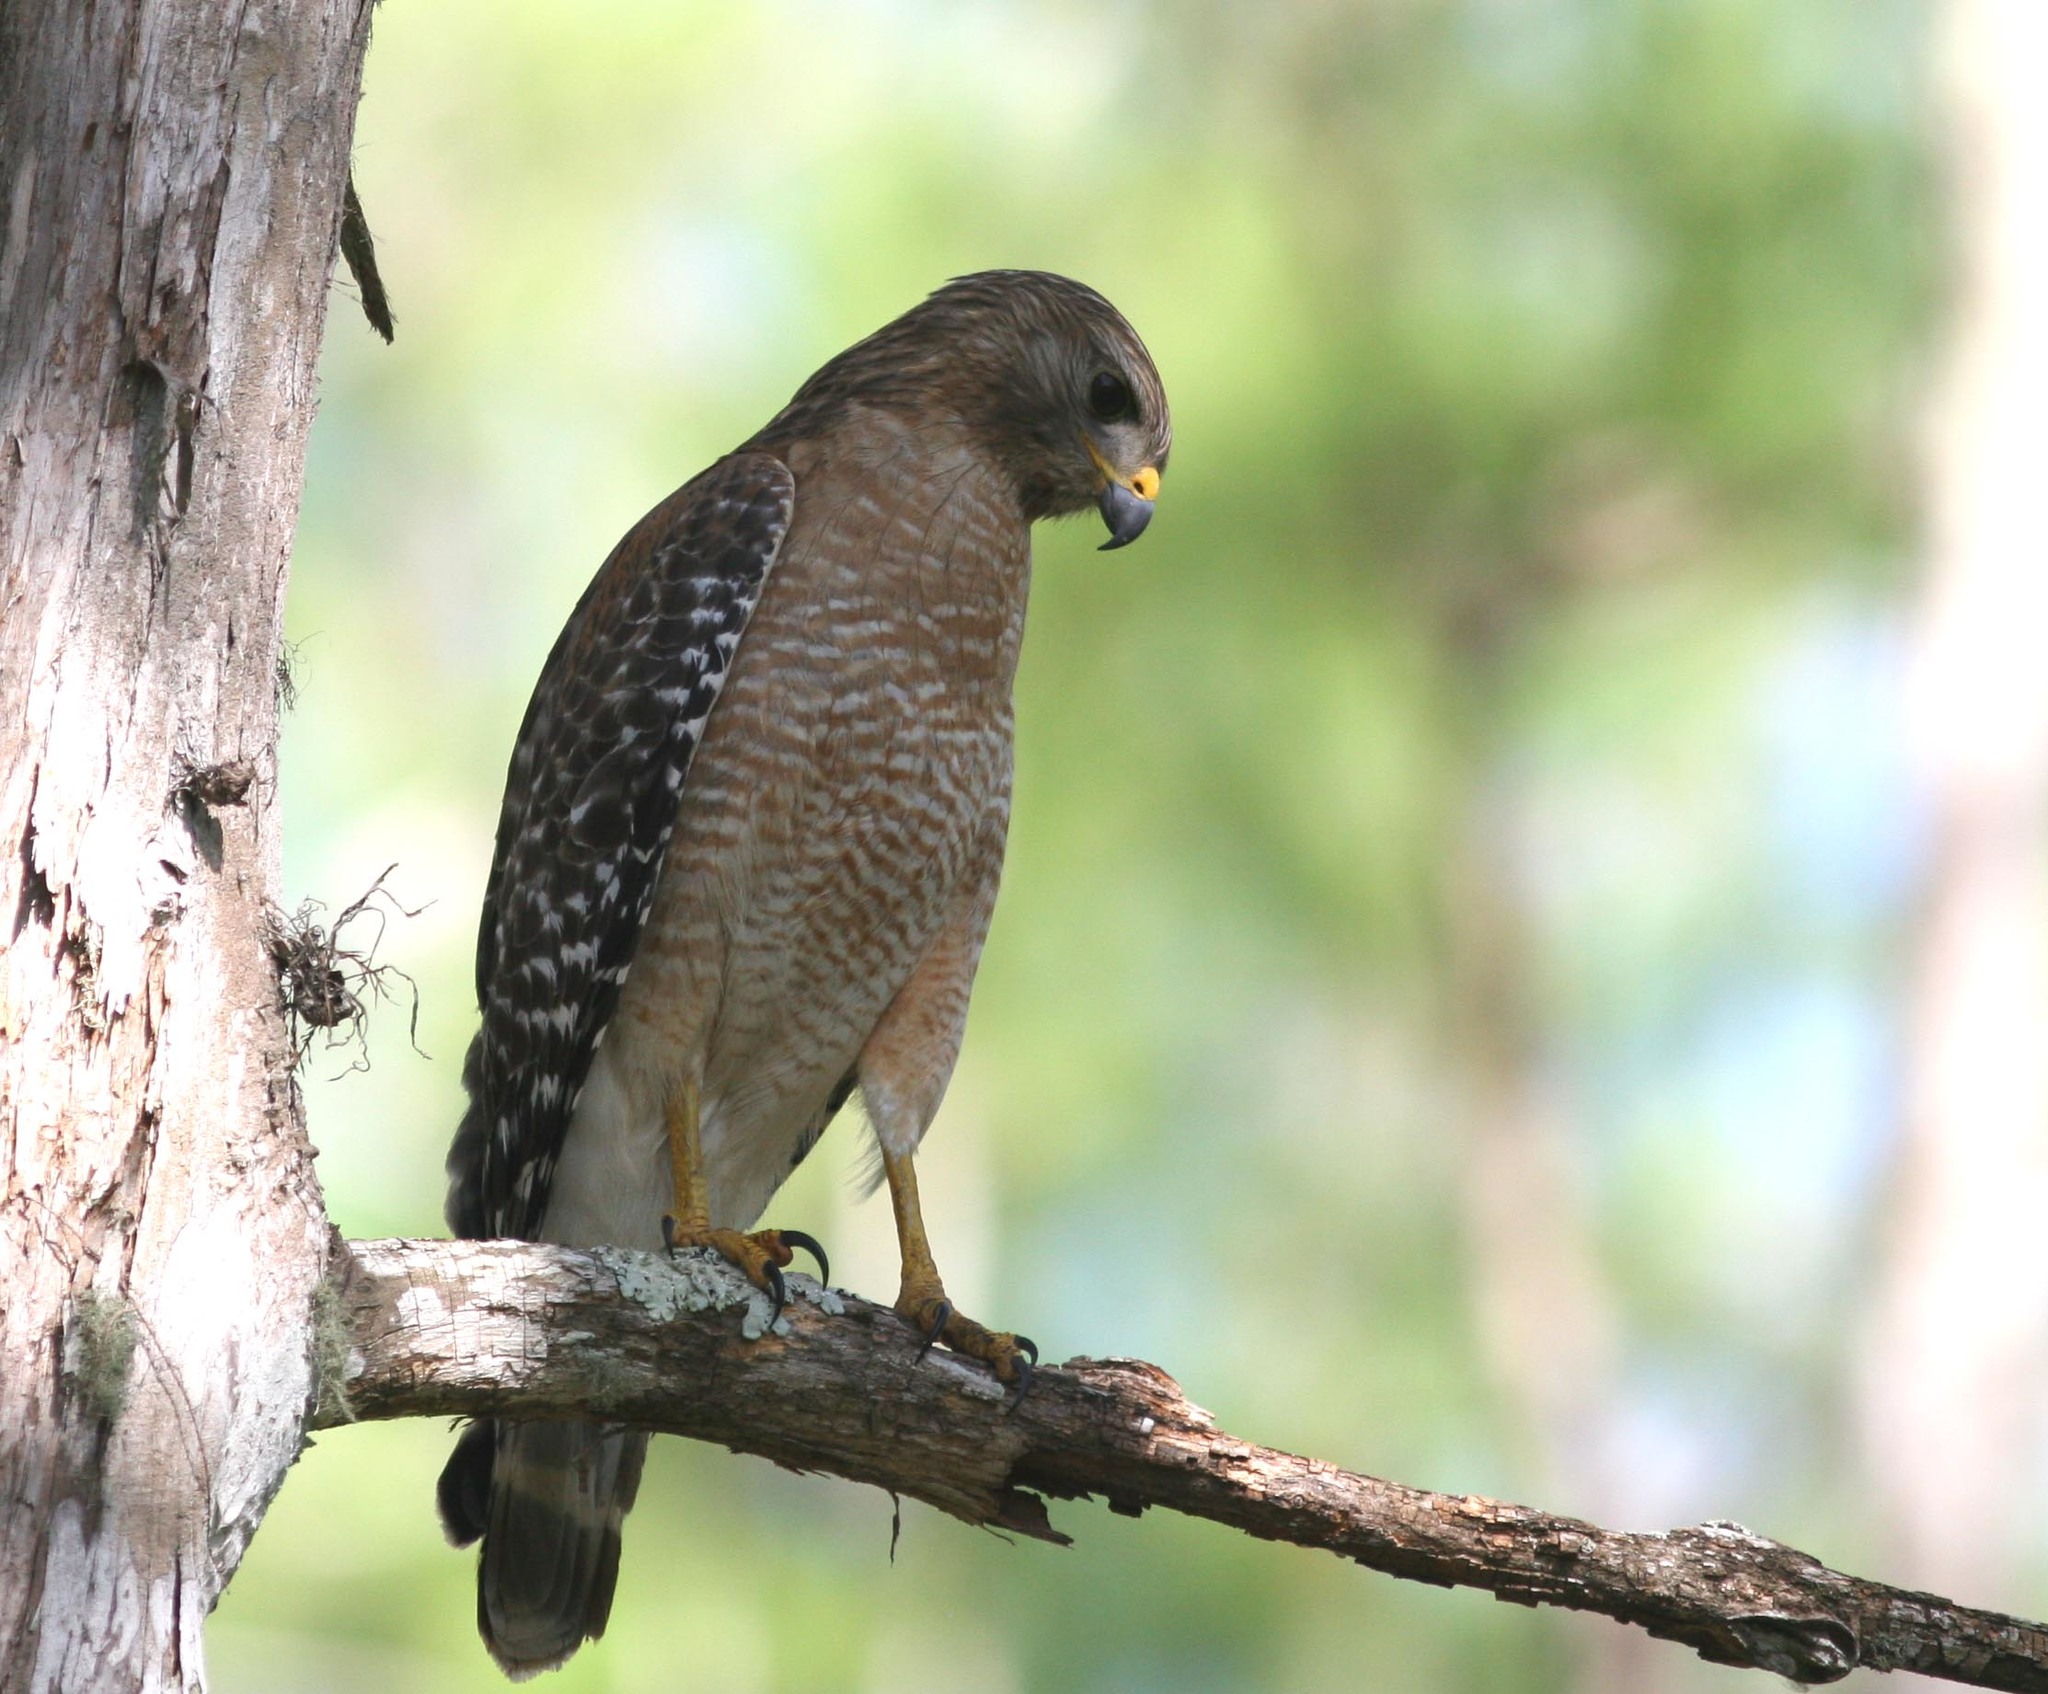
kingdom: Animalia
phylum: Chordata
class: Aves
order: Accipitriformes
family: Accipitridae
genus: Buteo
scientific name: Buteo lineatus
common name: Red-shouldered hawk
